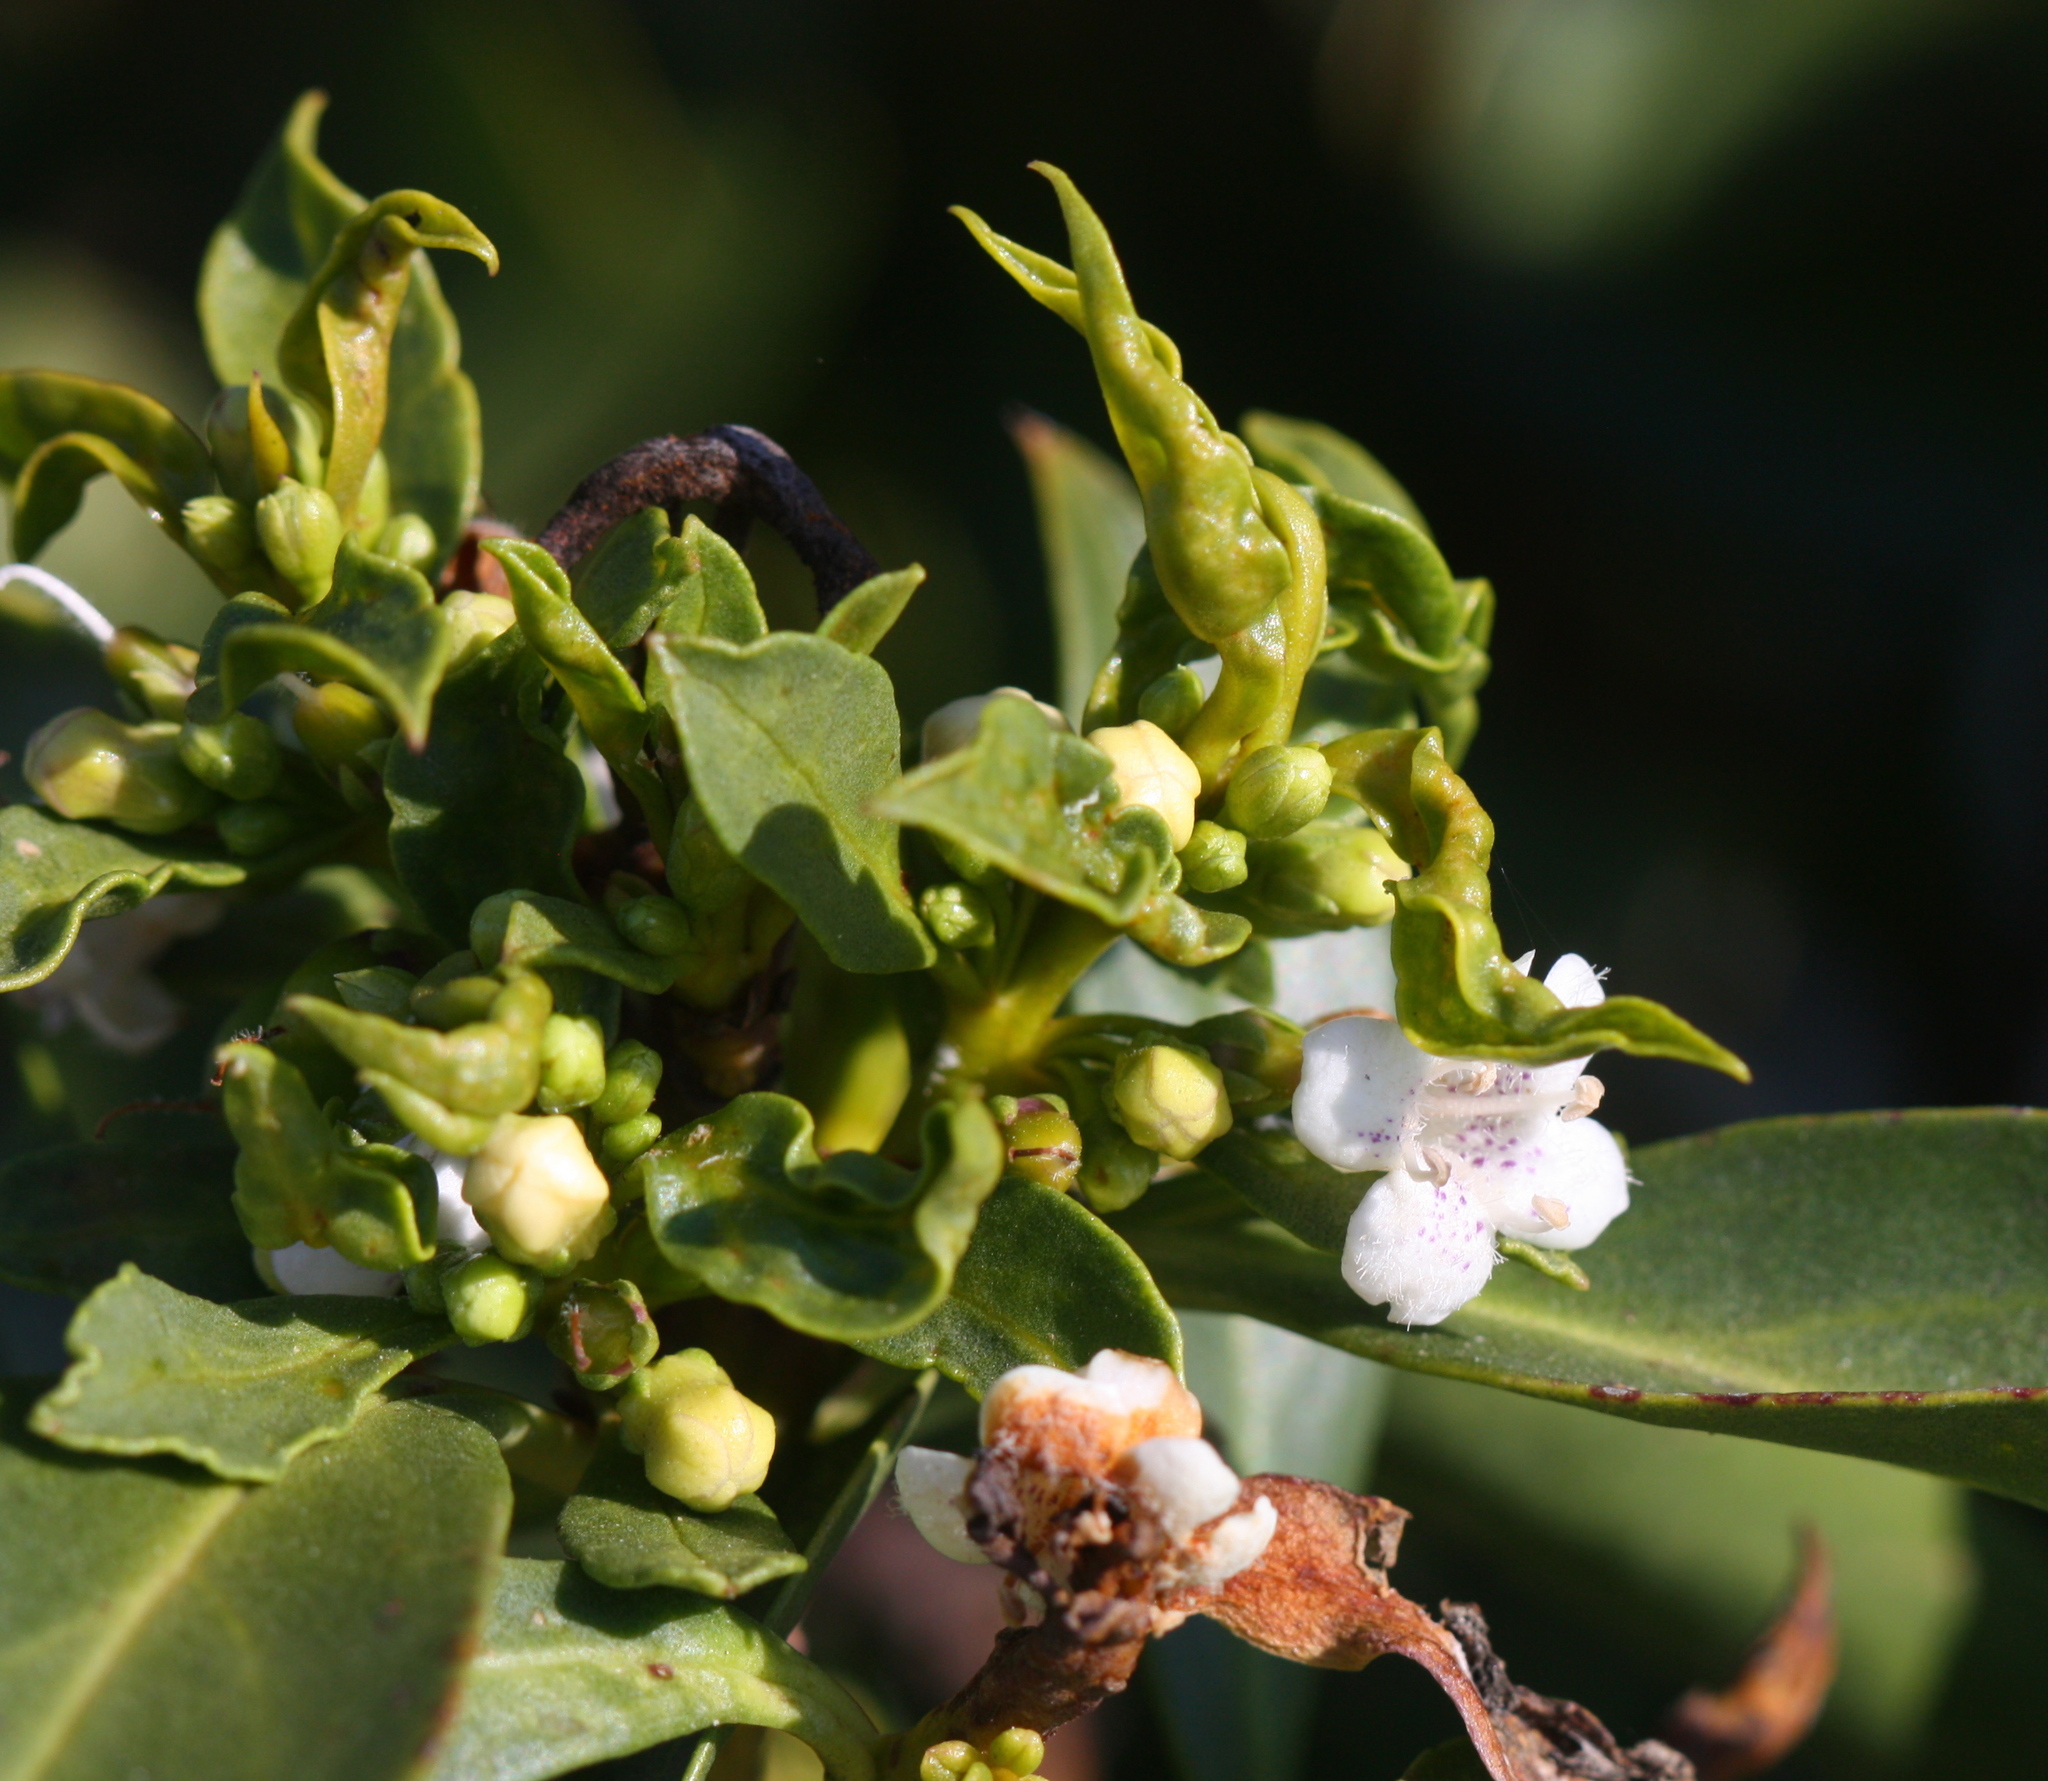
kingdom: Plantae
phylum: Tracheophyta
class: Magnoliopsida
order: Lamiales
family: Scrophulariaceae
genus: Myoporum
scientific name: Myoporum laetum
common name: Ngaio tree
